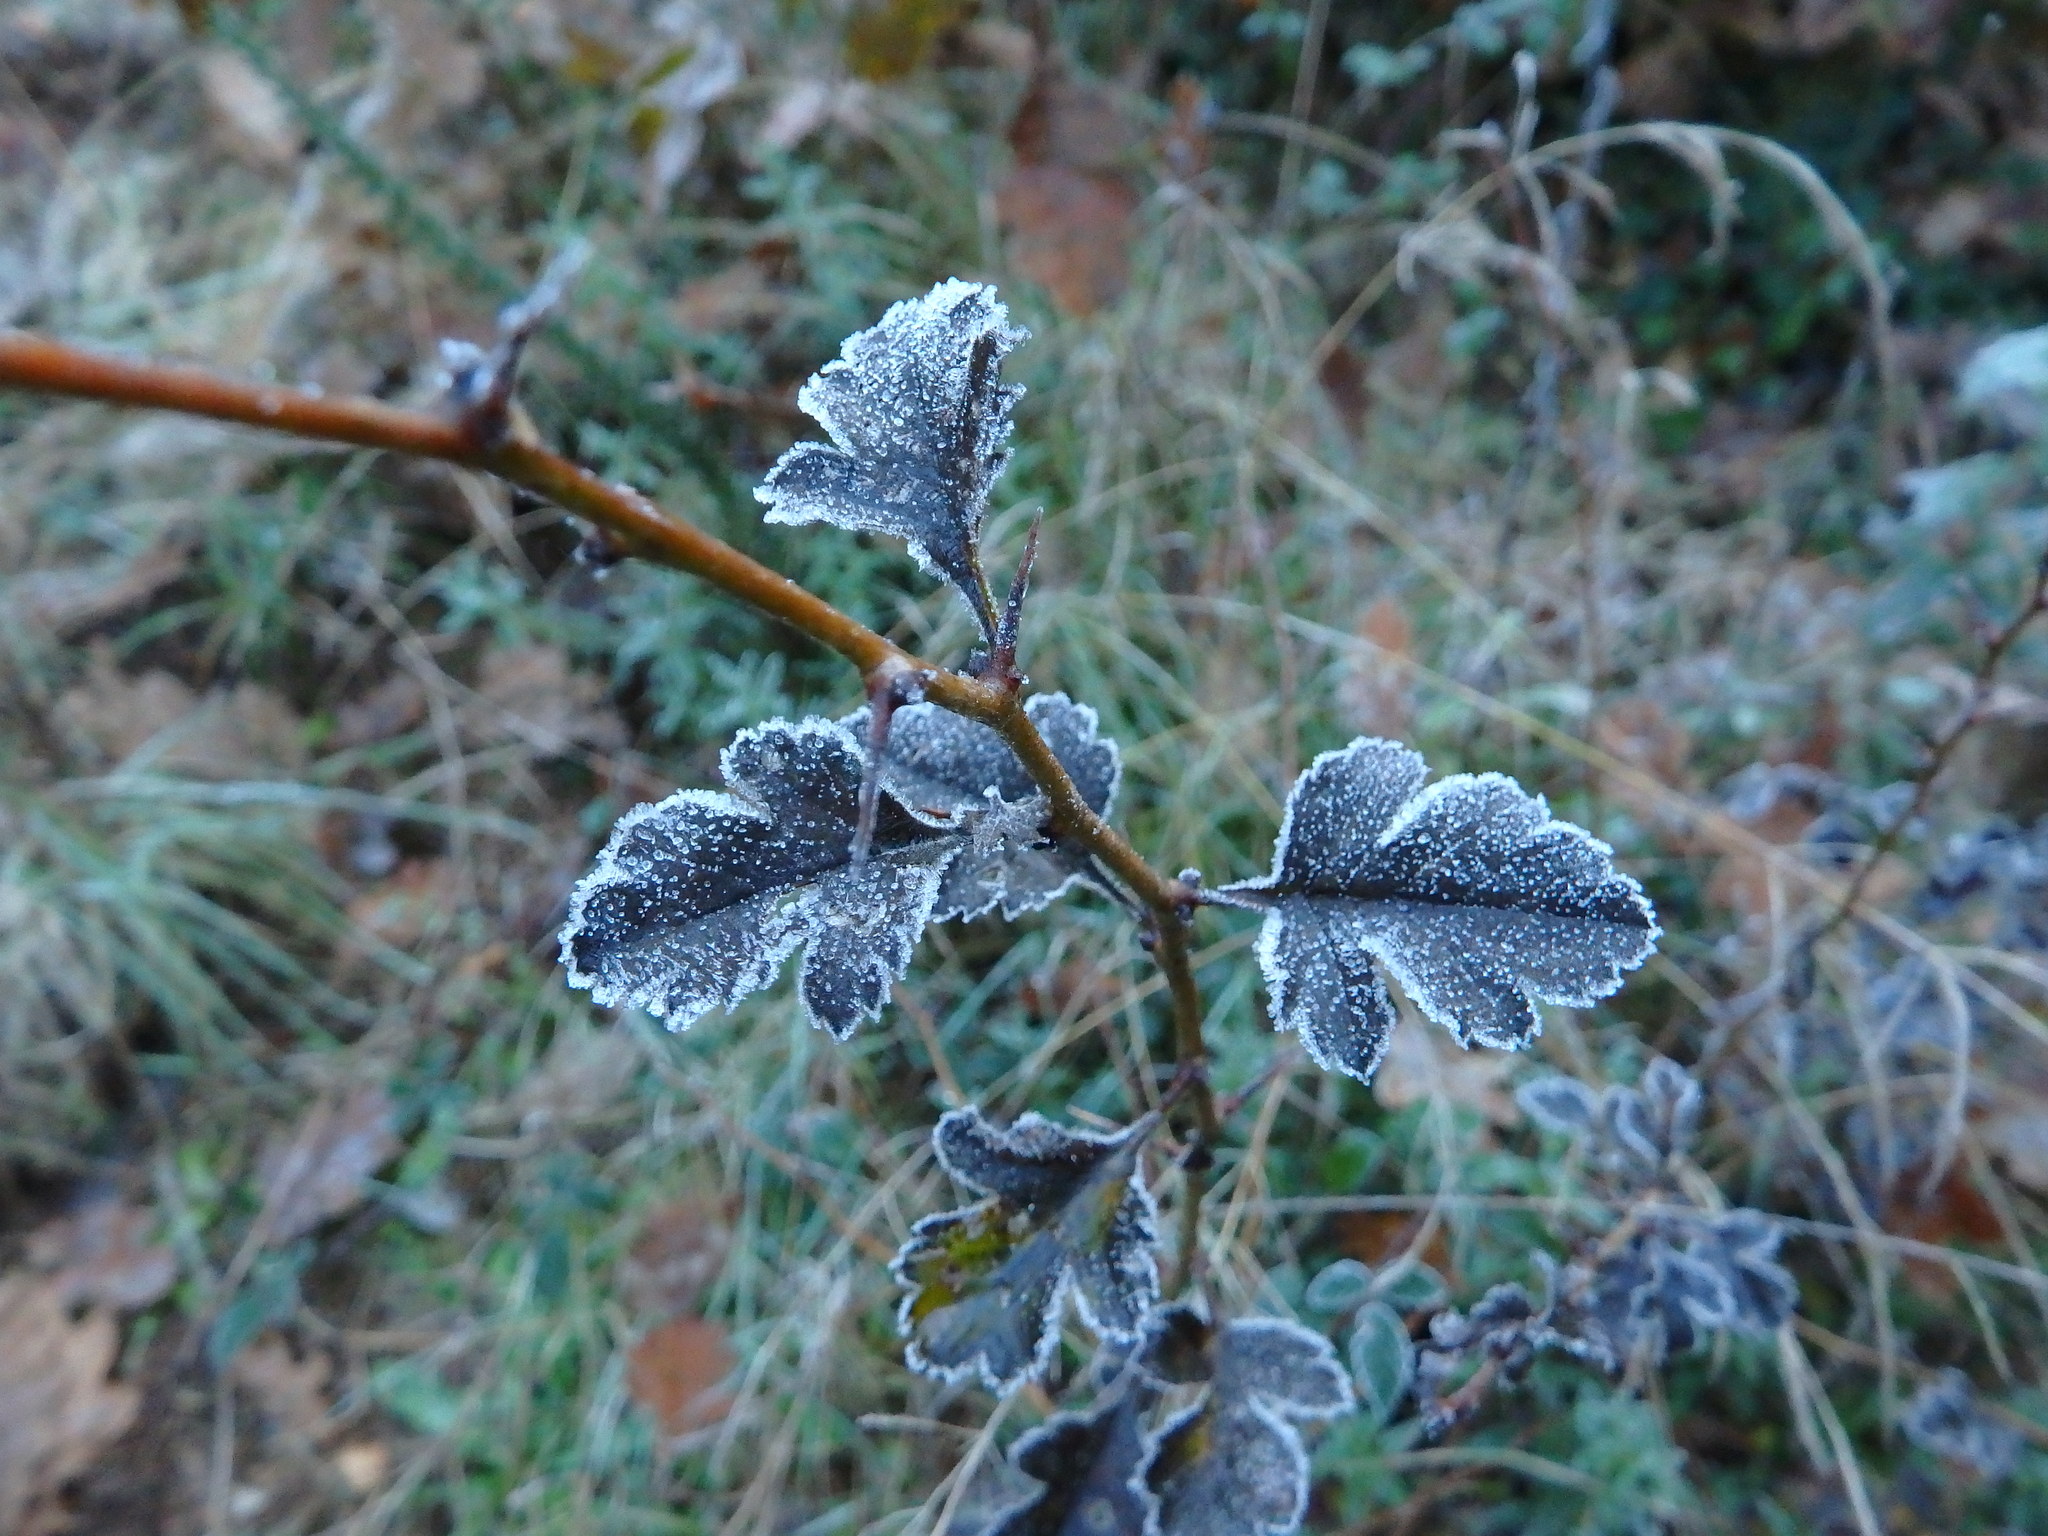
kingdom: Plantae
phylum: Tracheophyta
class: Magnoliopsida
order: Rosales
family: Rosaceae
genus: Crataegus
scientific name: Crataegus monogyna
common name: Hawthorn
